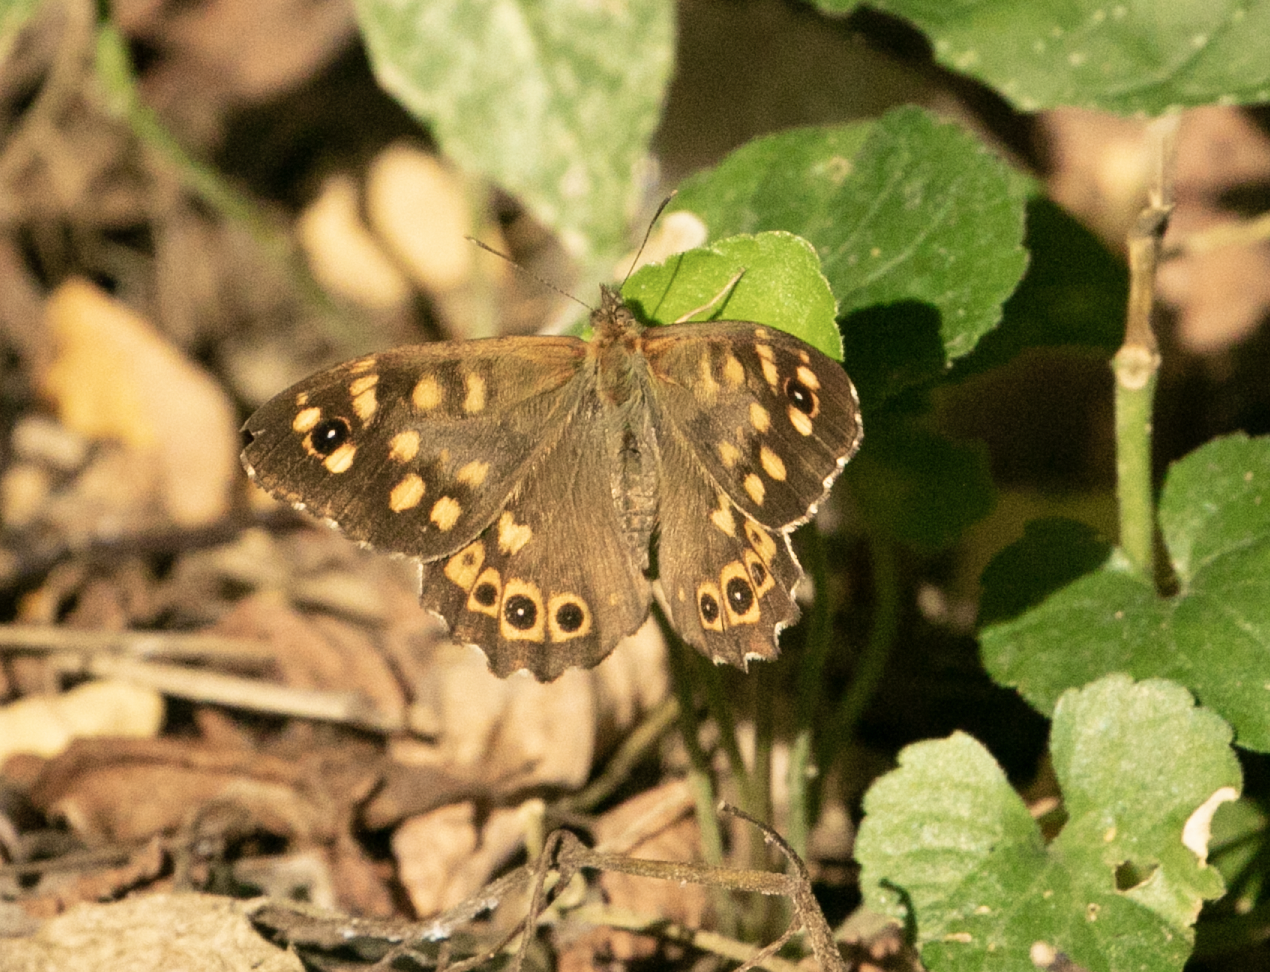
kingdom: Animalia
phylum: Arthropoda
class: Insecta
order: Lepidoptera
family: Nymphalidae
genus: Pararge
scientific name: Pararge aegeria
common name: Speckled wood
